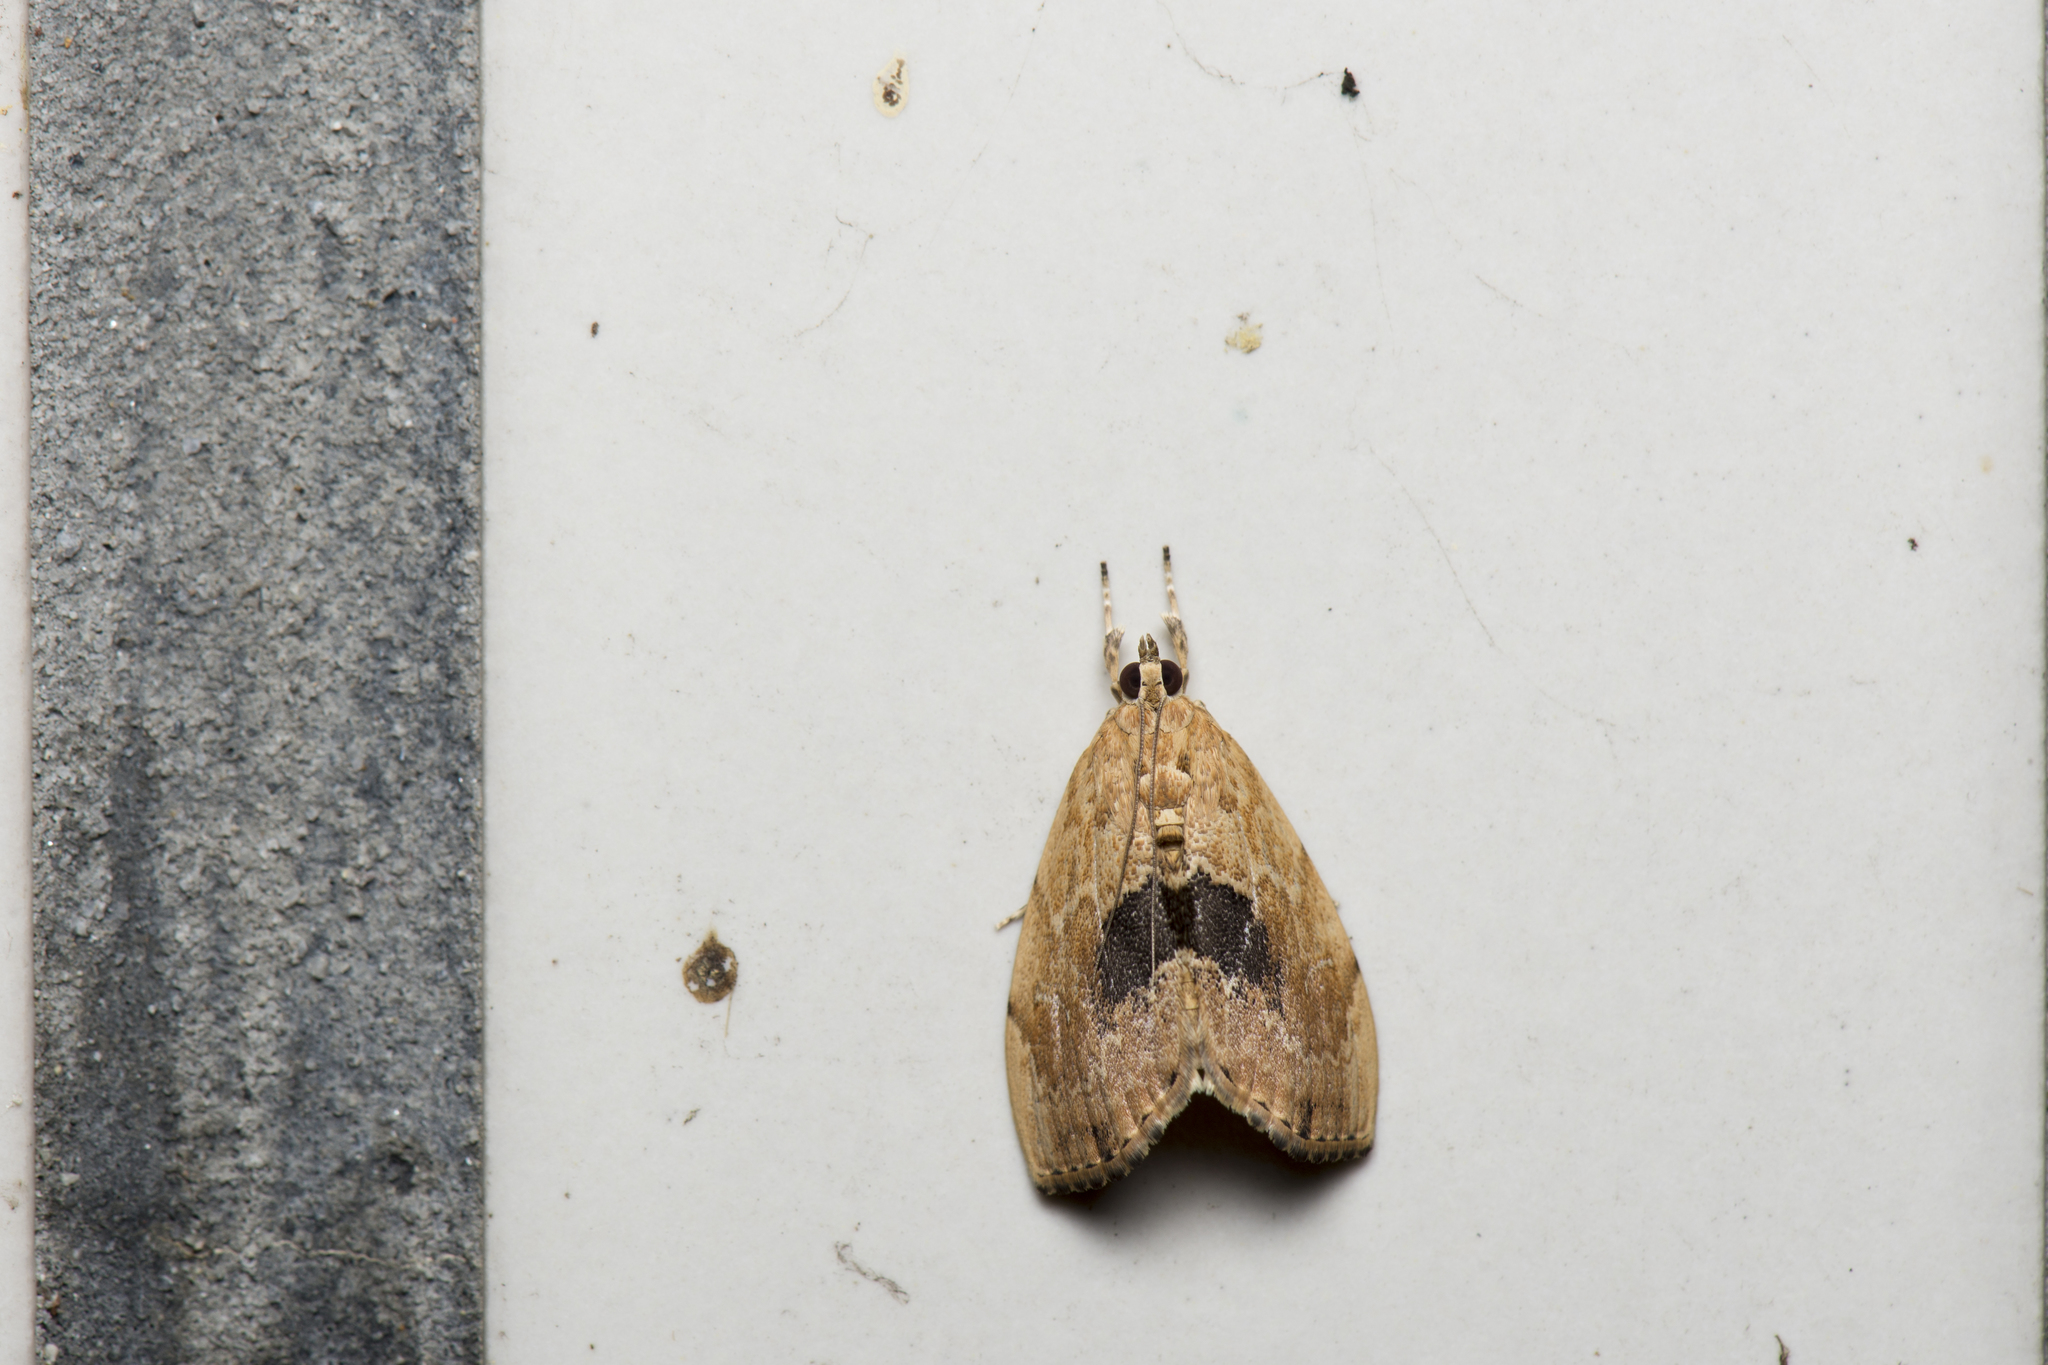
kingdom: Animalia
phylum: Arthropoda
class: Insecta
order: Lepidoptera
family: Crambidae
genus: Crocidolomia
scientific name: Crocidolomia suffusalis
